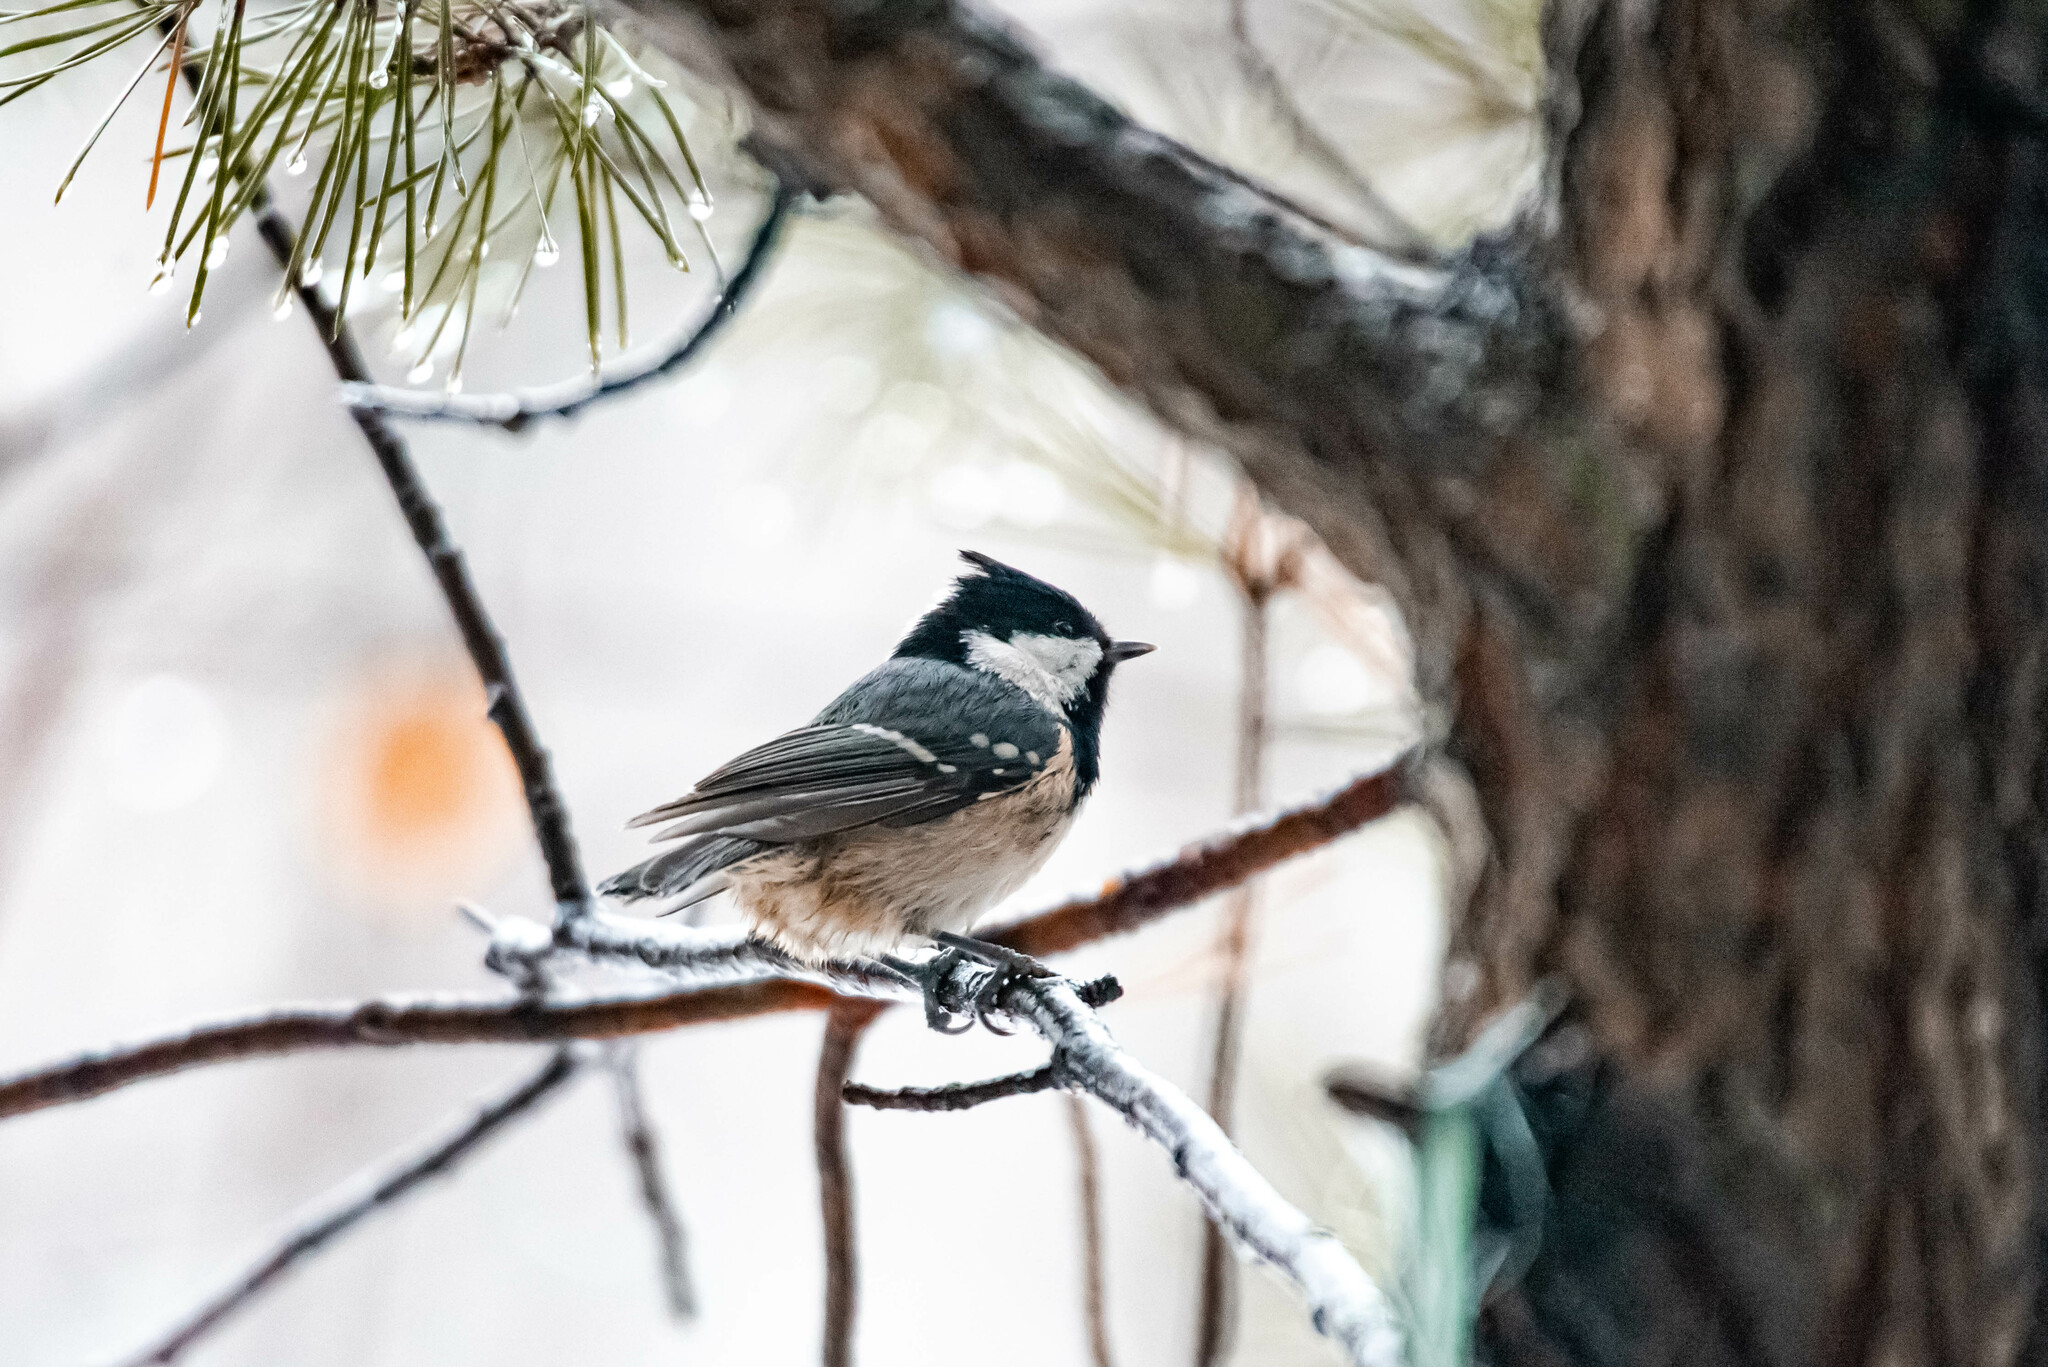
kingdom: Animalia
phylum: Chordata
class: Aves
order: Passeriformes
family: Paridae
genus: Periparus
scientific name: Periparus ater
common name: Coal tit
